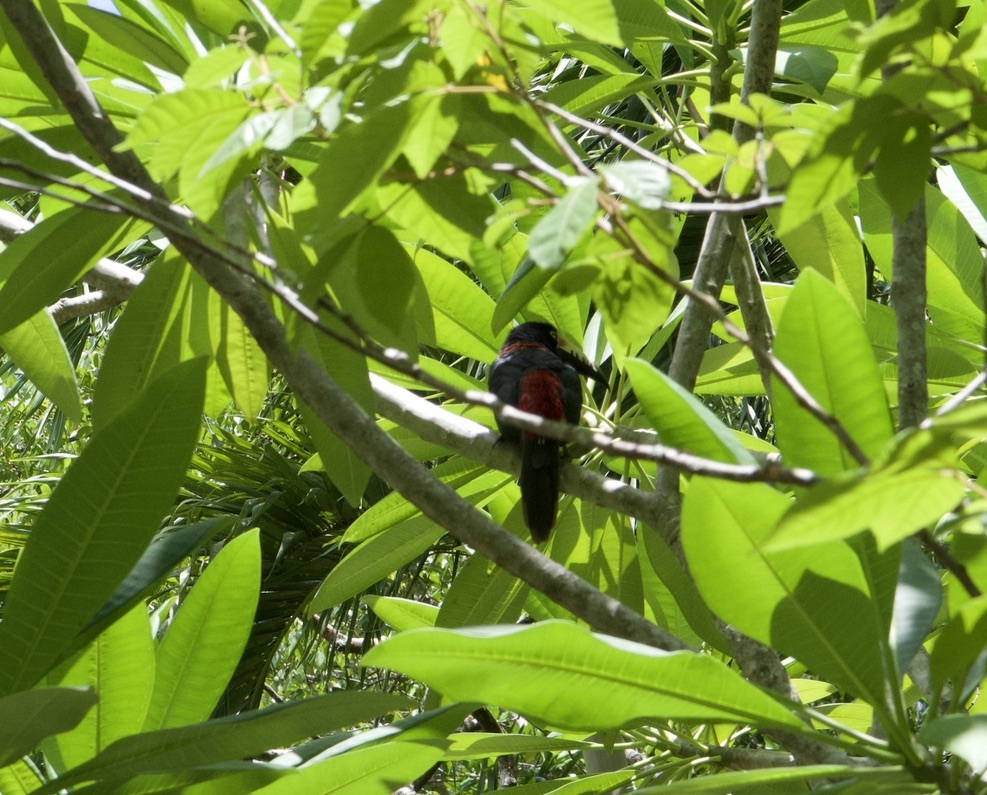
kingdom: Animalia
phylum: Chordata
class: Aves
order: Piciformes
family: Ramphastidae
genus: Pteroglossus
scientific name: Pteroglossus torquatus
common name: Collared aracari
